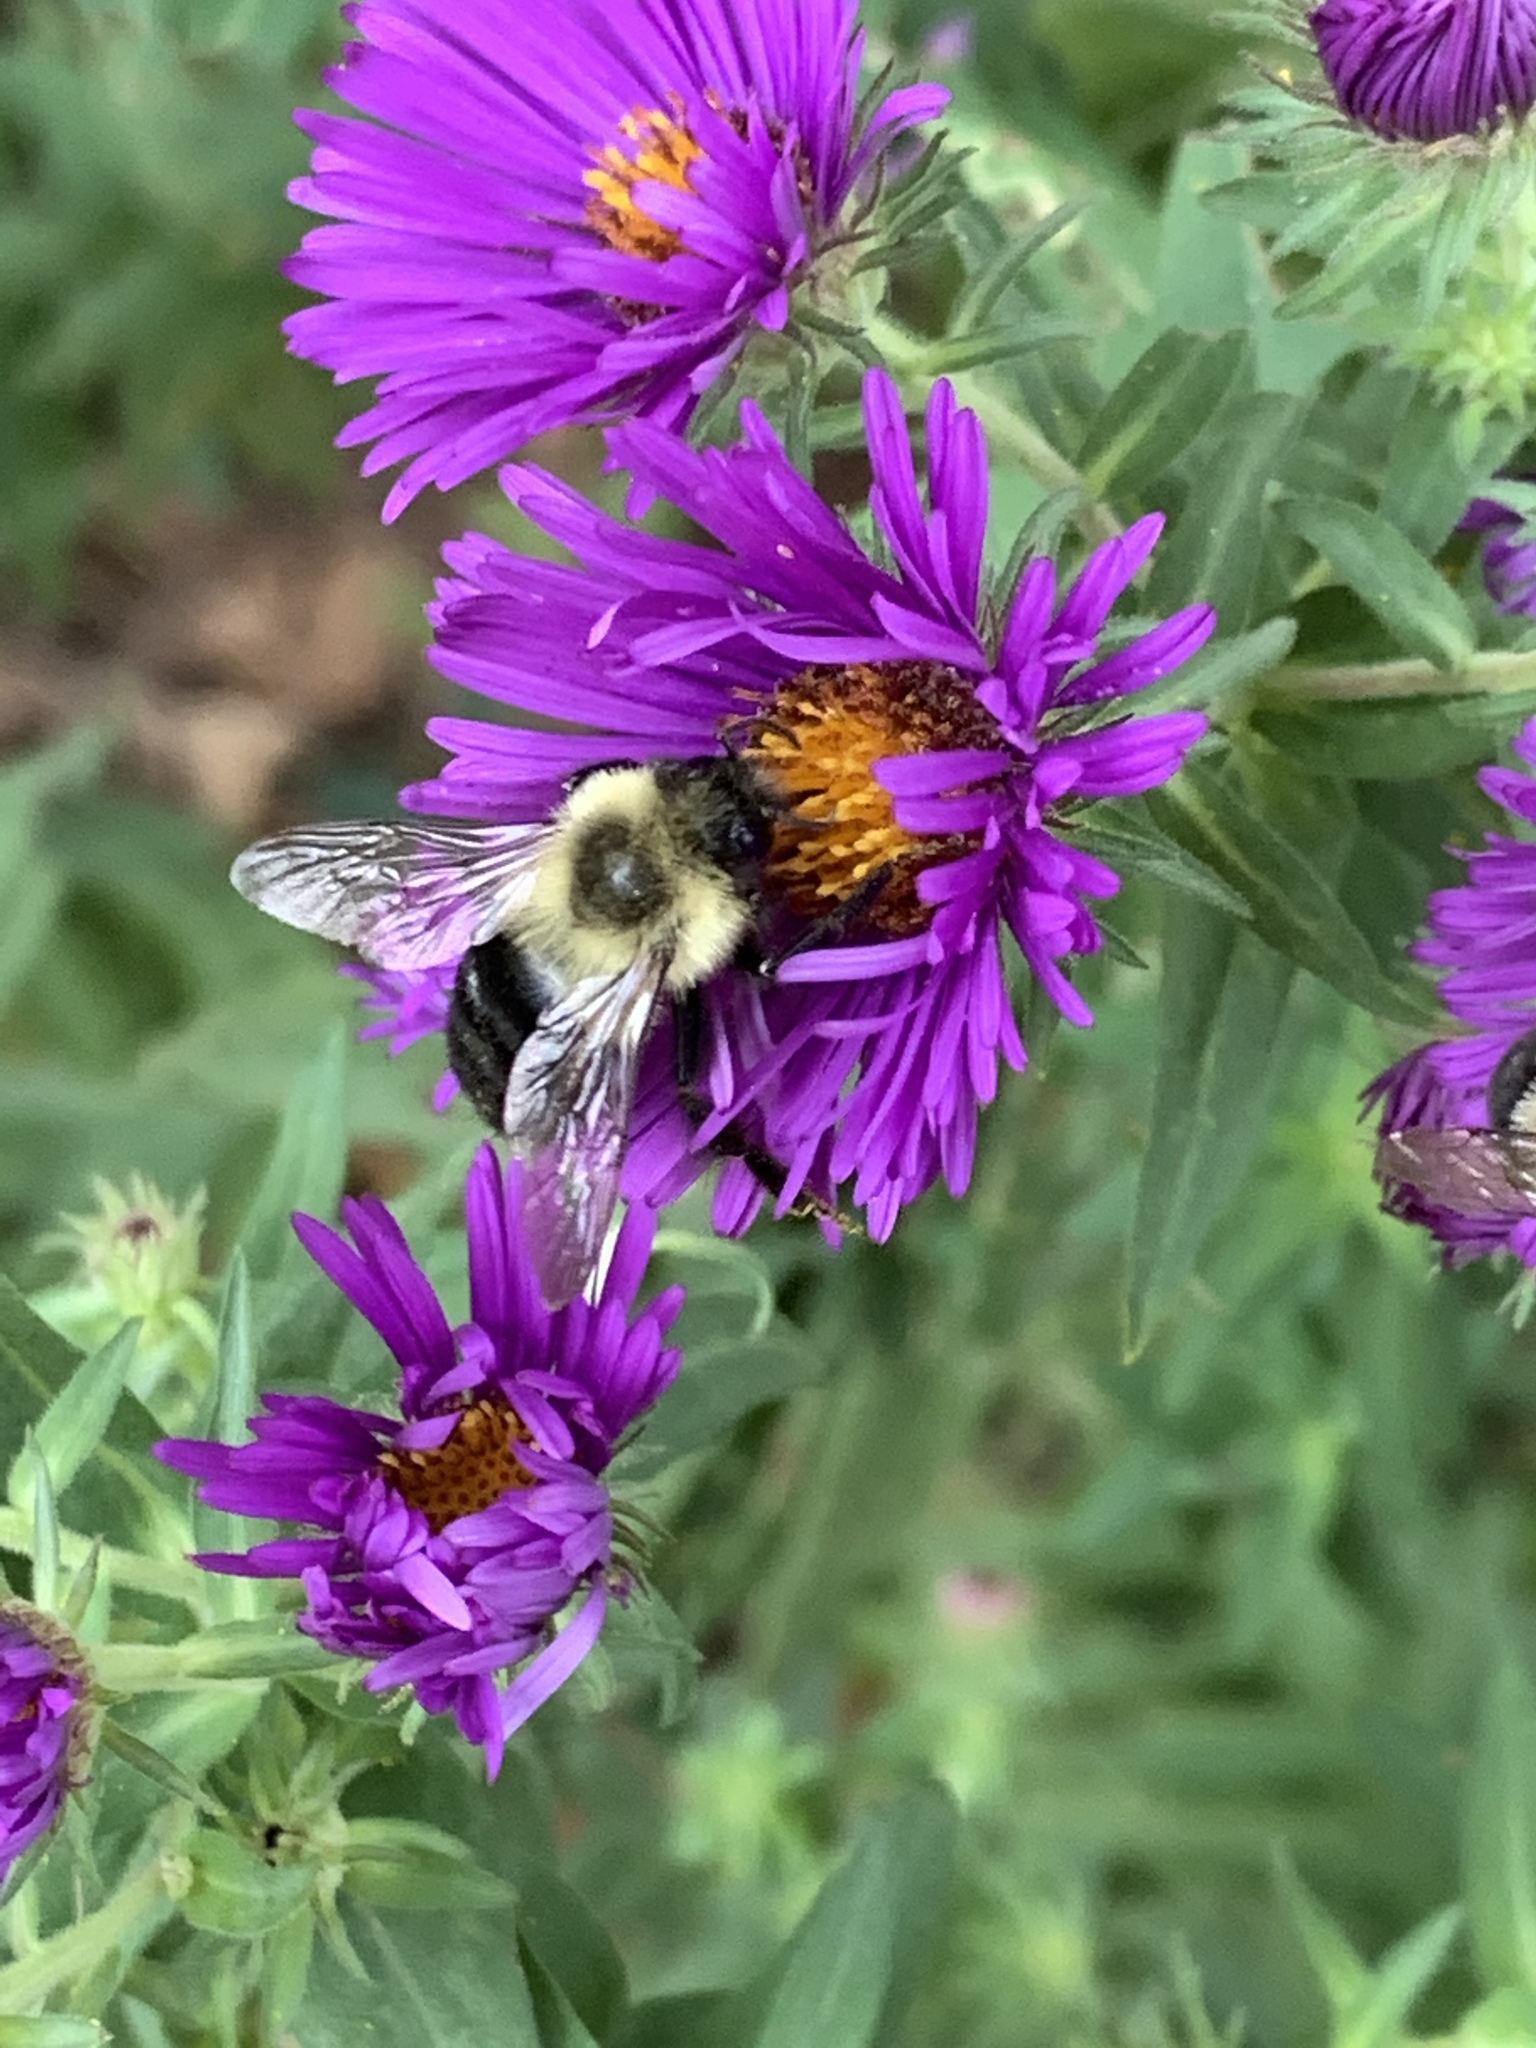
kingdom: Animalia
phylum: Arthropoda
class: Insecta
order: Hymenoptera
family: Apidae
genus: Bombus
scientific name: Bombus impatiens
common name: Common eastern bumble bee
